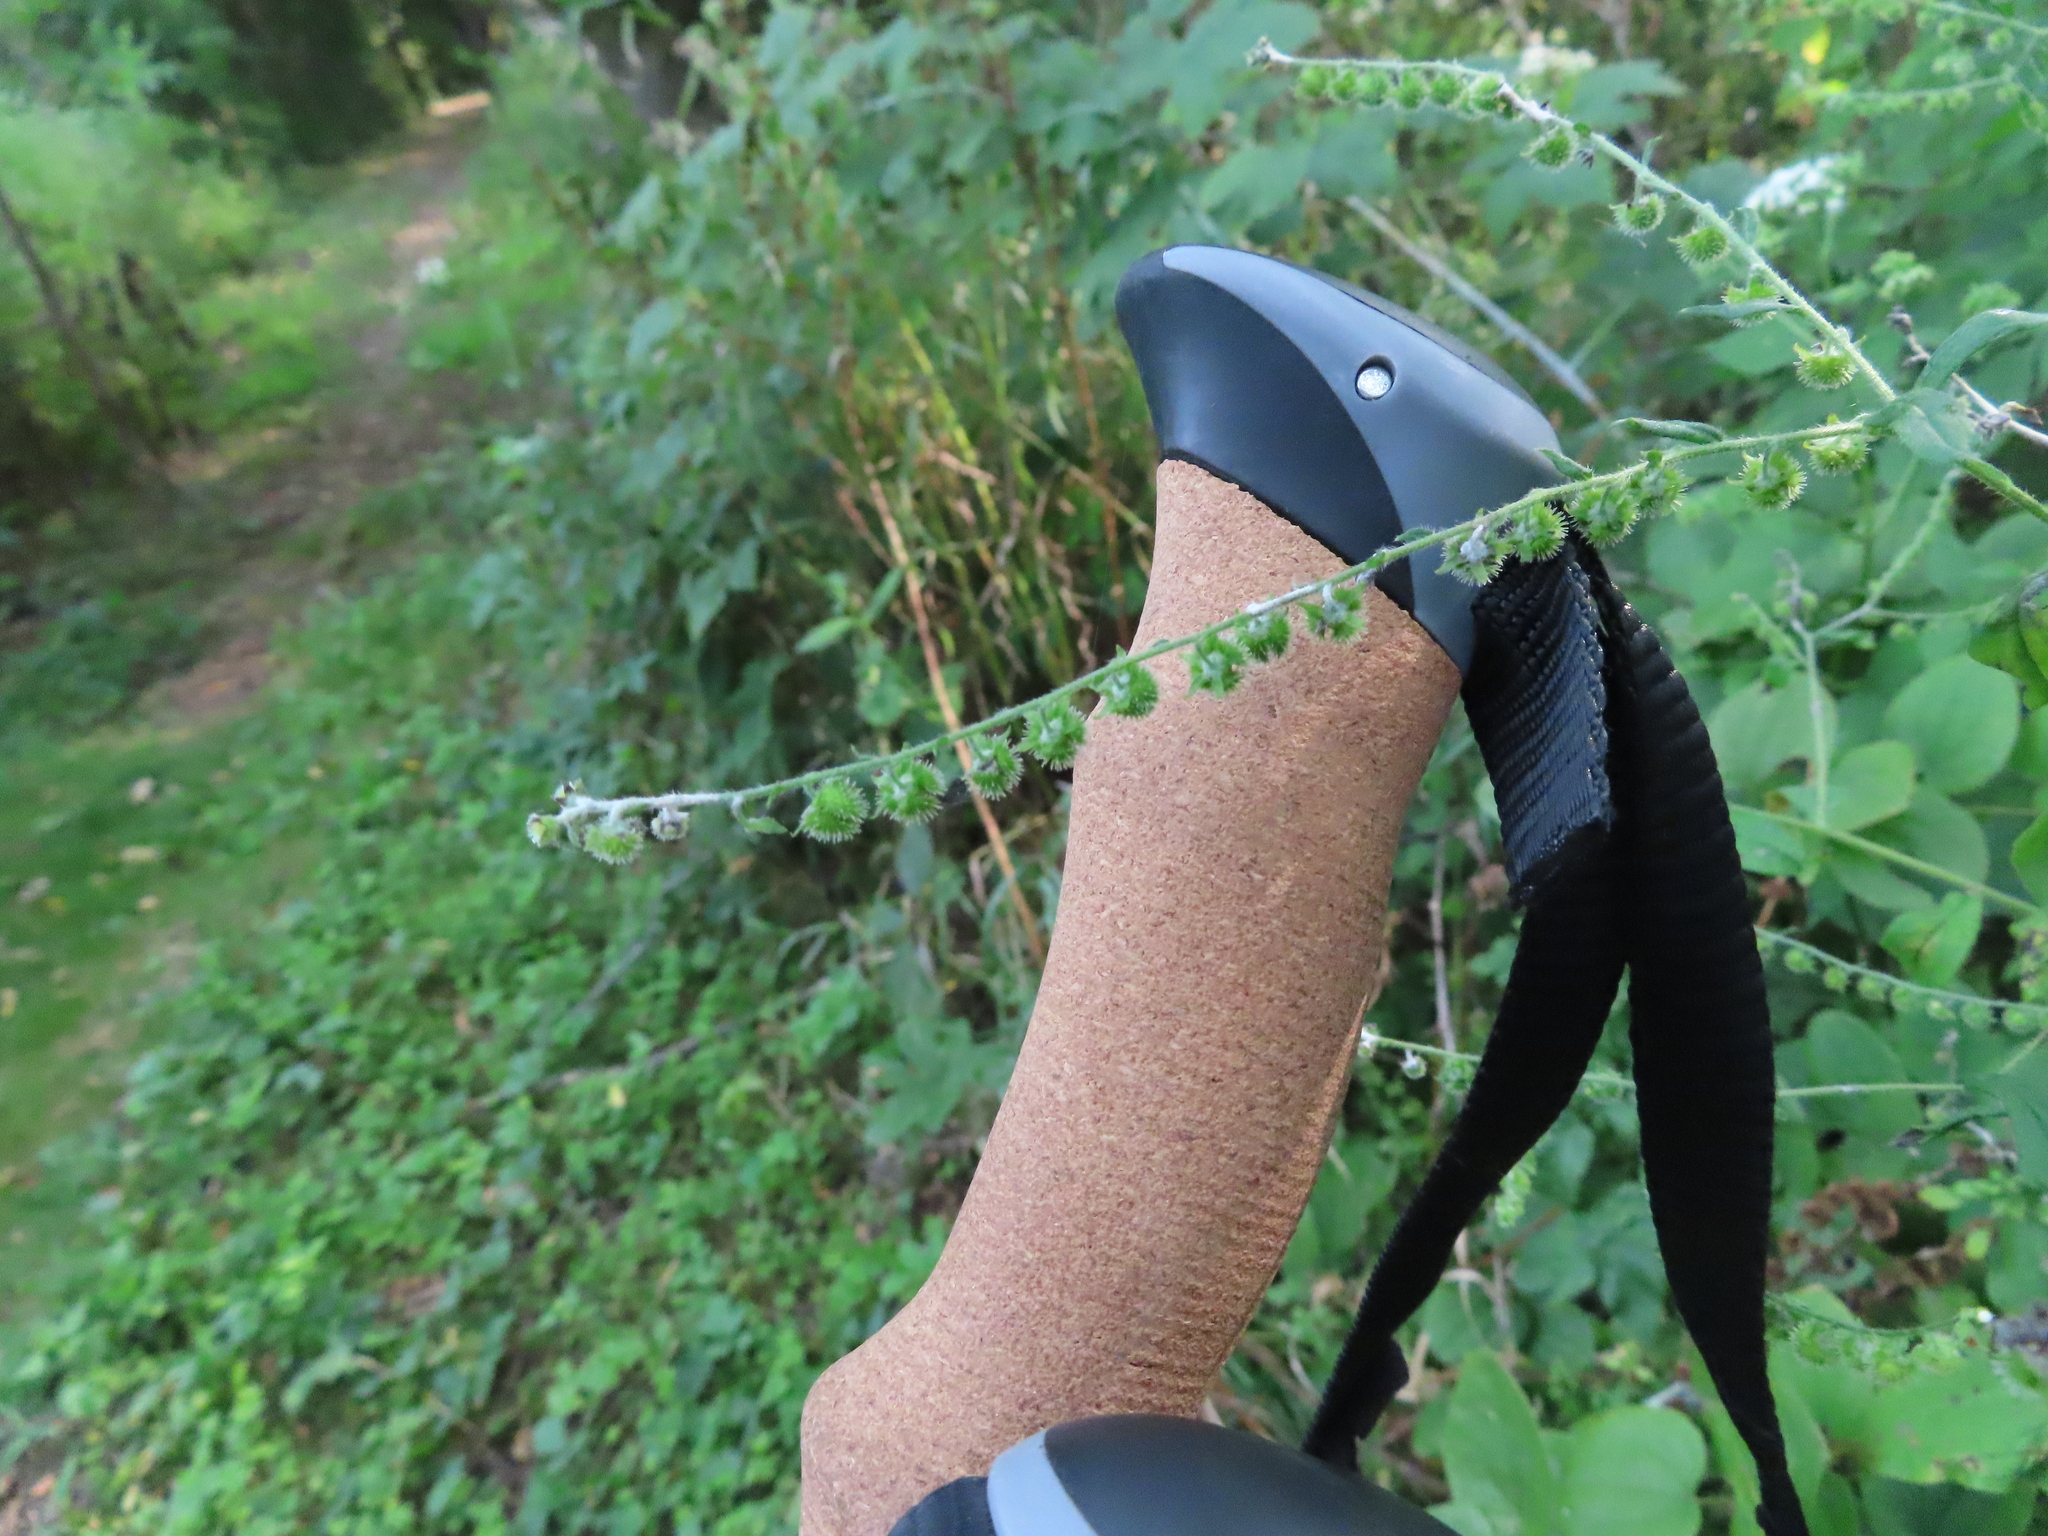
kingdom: Plantae
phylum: Tracheophyta
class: Magnoliopsida
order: Boraginales
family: Boraginaceae
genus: Hackelia
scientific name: Hackelia virginiana
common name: Beggar's-lice
